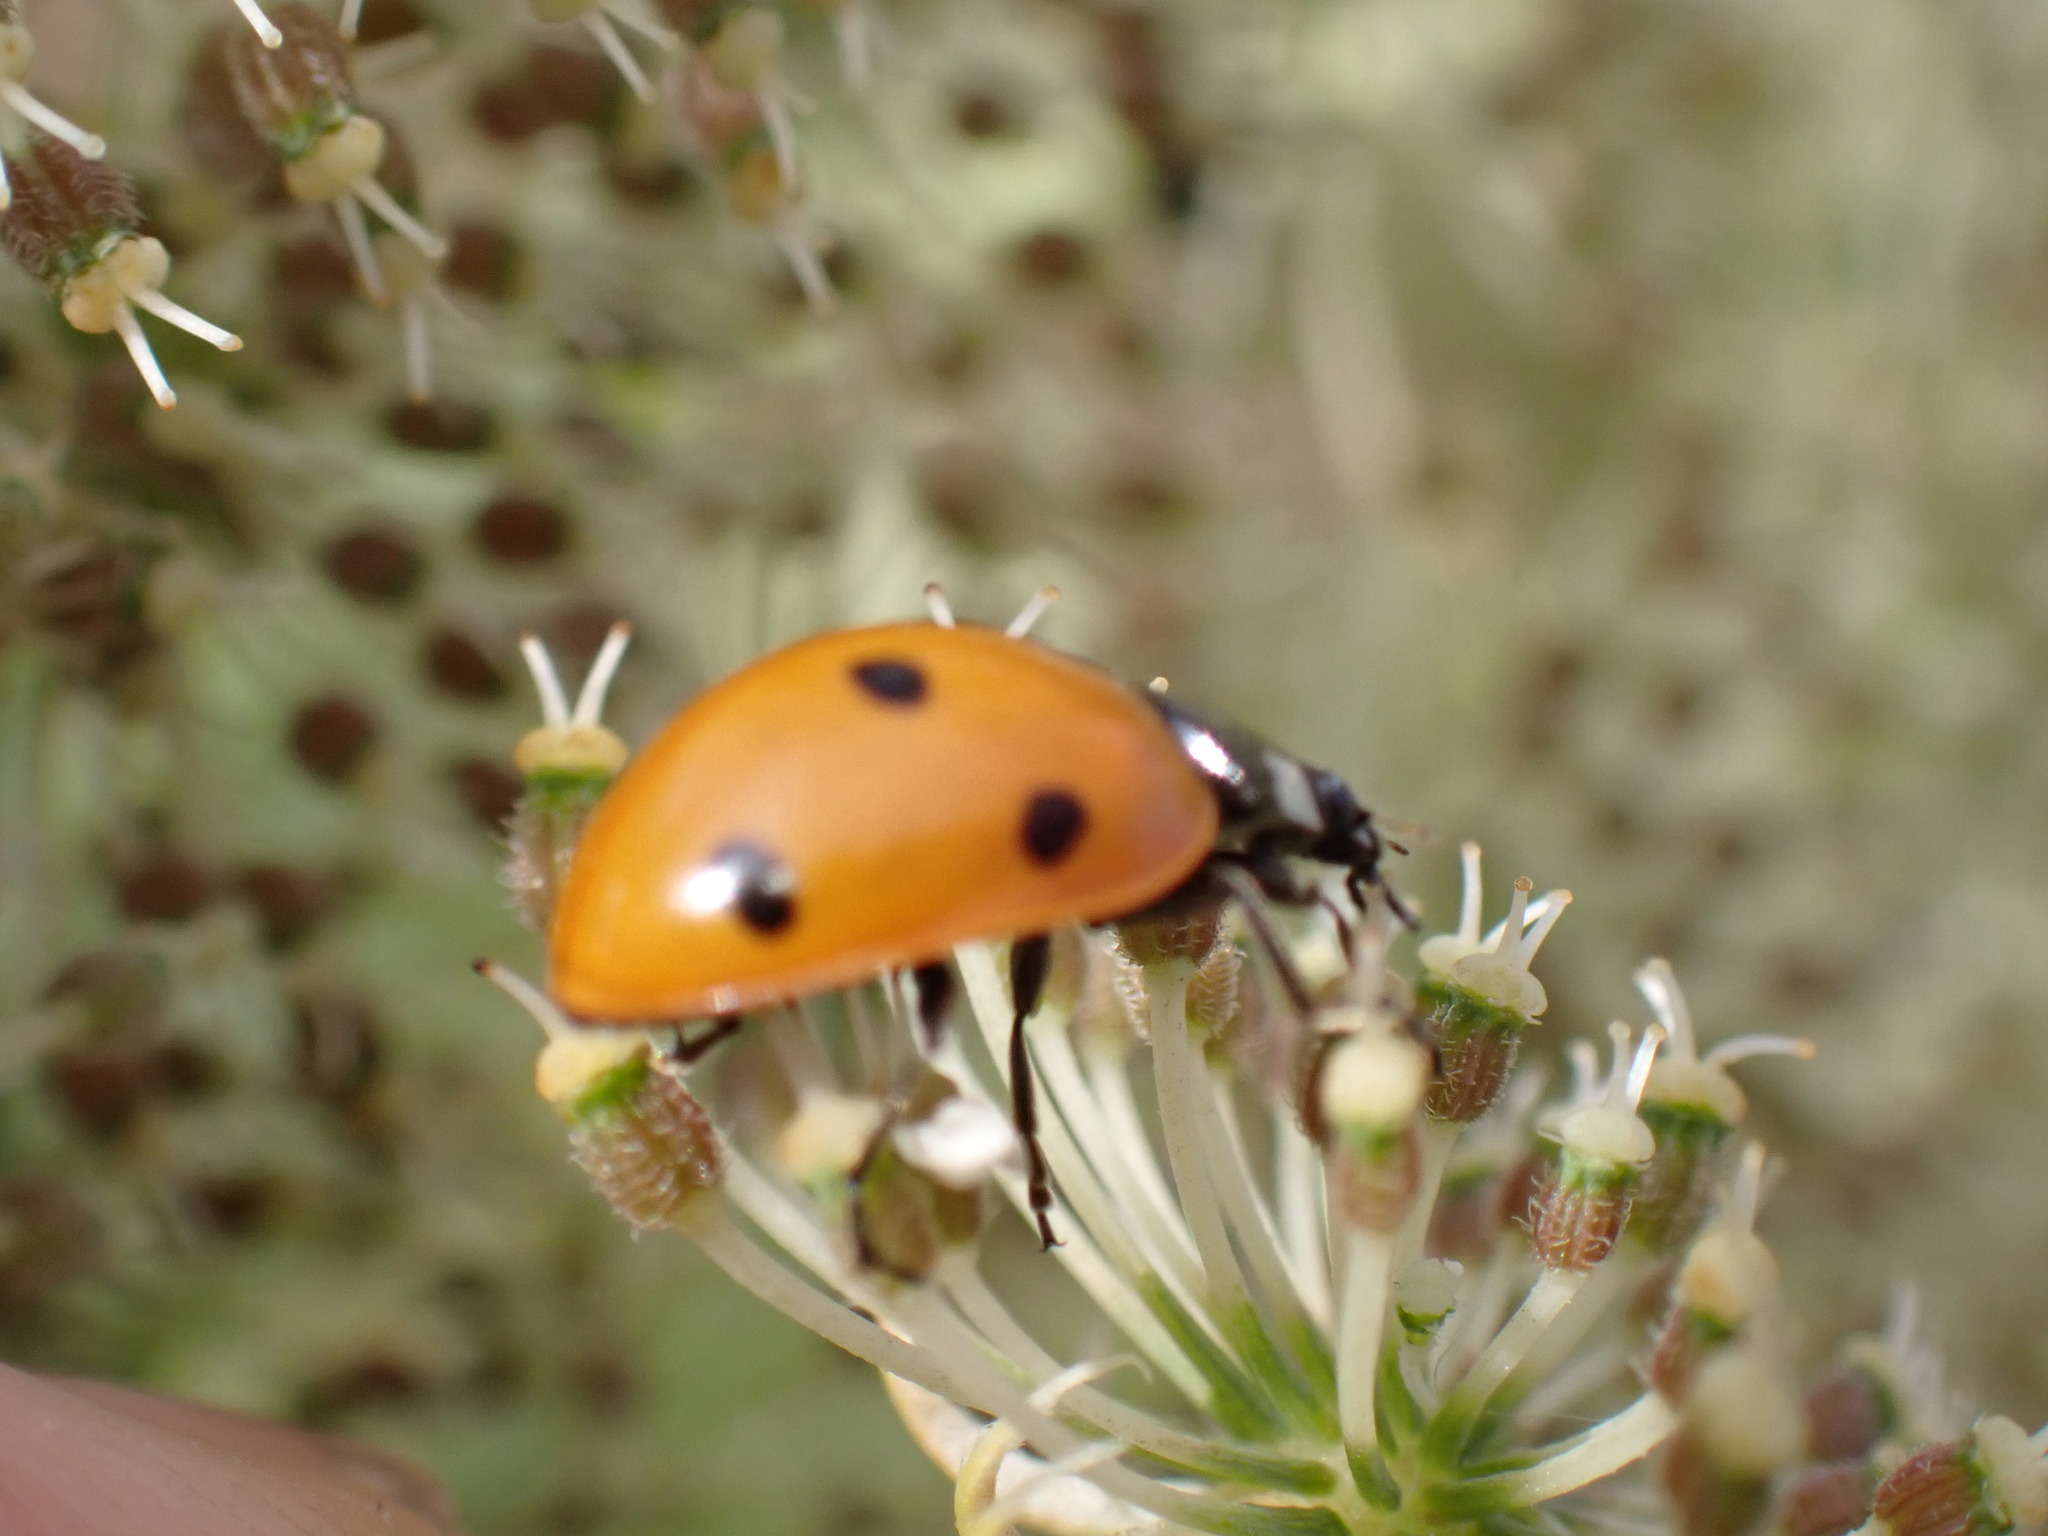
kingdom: Animalia
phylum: Arthropoda
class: Insecta
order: Coleoptera
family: Coccinellidae
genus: Coccinella
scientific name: Coccinella septempunctata
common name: Sevenspotted lady beetle
